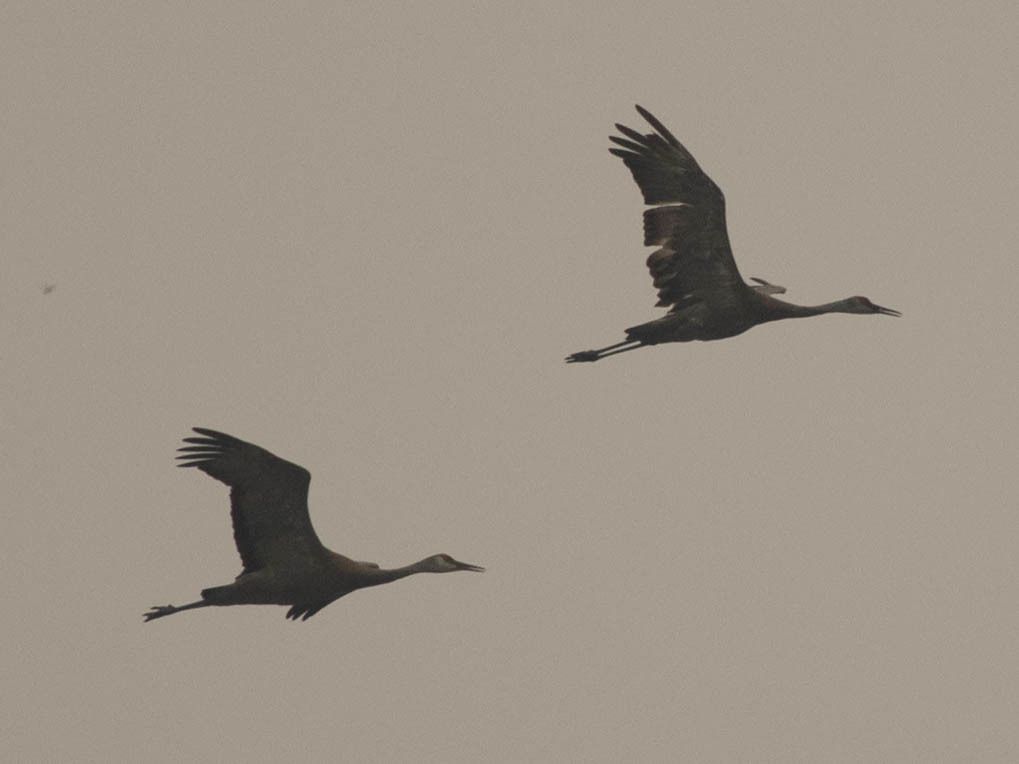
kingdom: Animalia
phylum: Chordata
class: Aves
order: Gruiformes
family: Gruidae
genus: Grus
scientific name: Grus canadensis
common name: Sandhill crane
